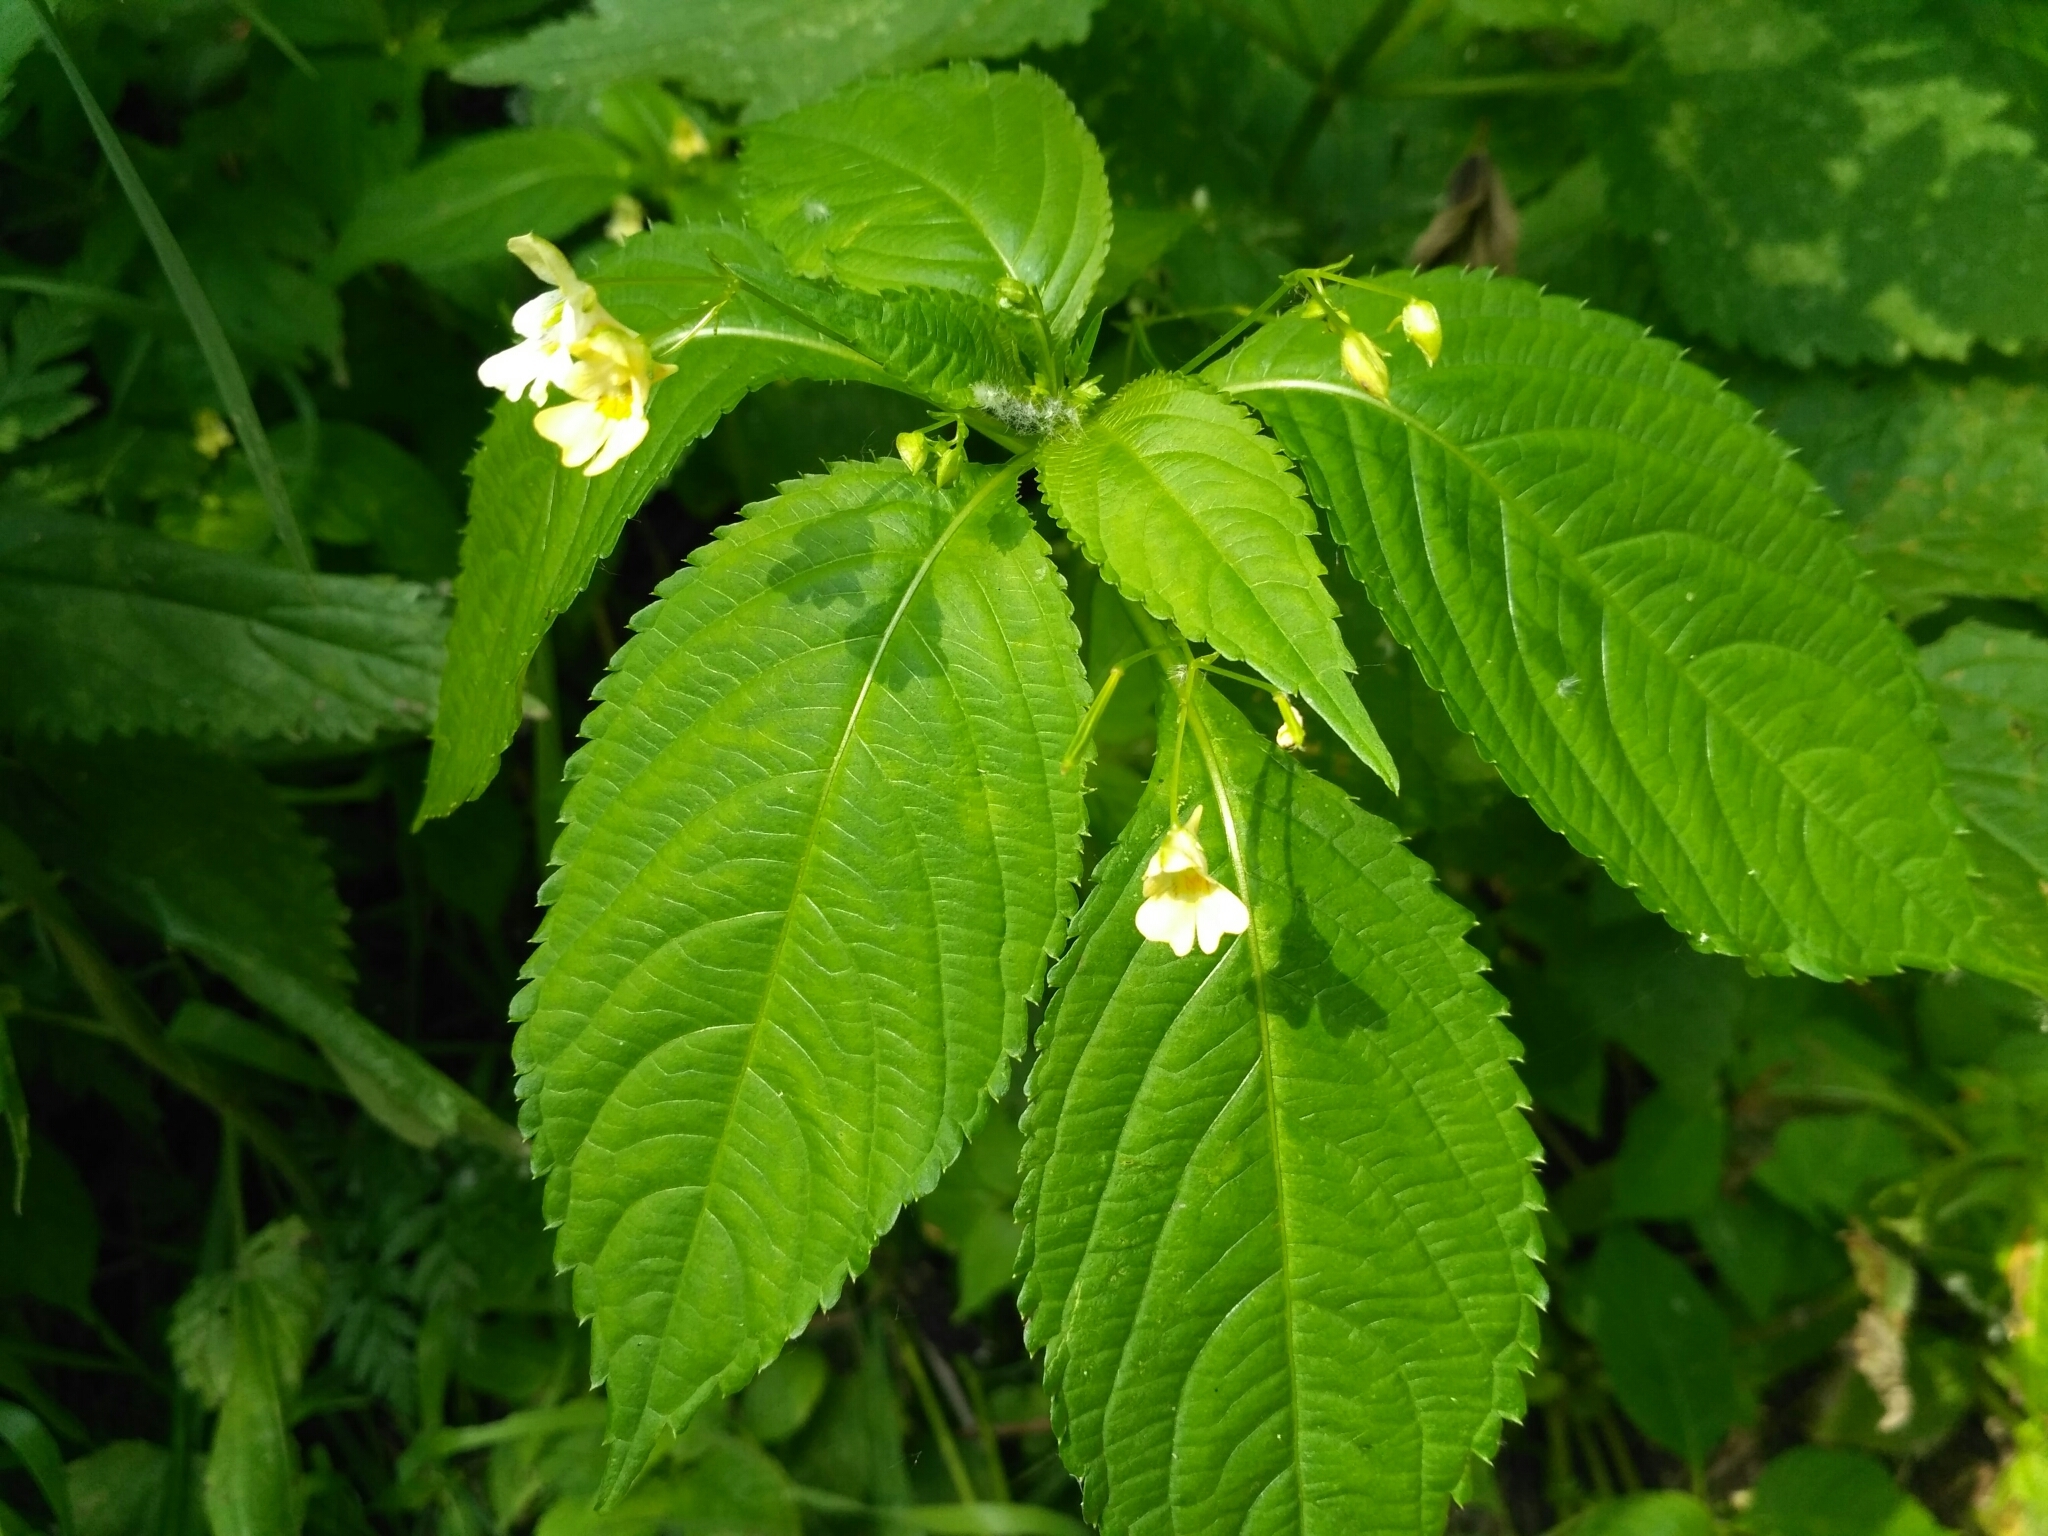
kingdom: Plantae
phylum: Tracheophyta
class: Magnoliopsida
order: Ericales
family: Balsaminaceae
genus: Impatiens
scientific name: Impatiens parviflora
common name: Small balsam
